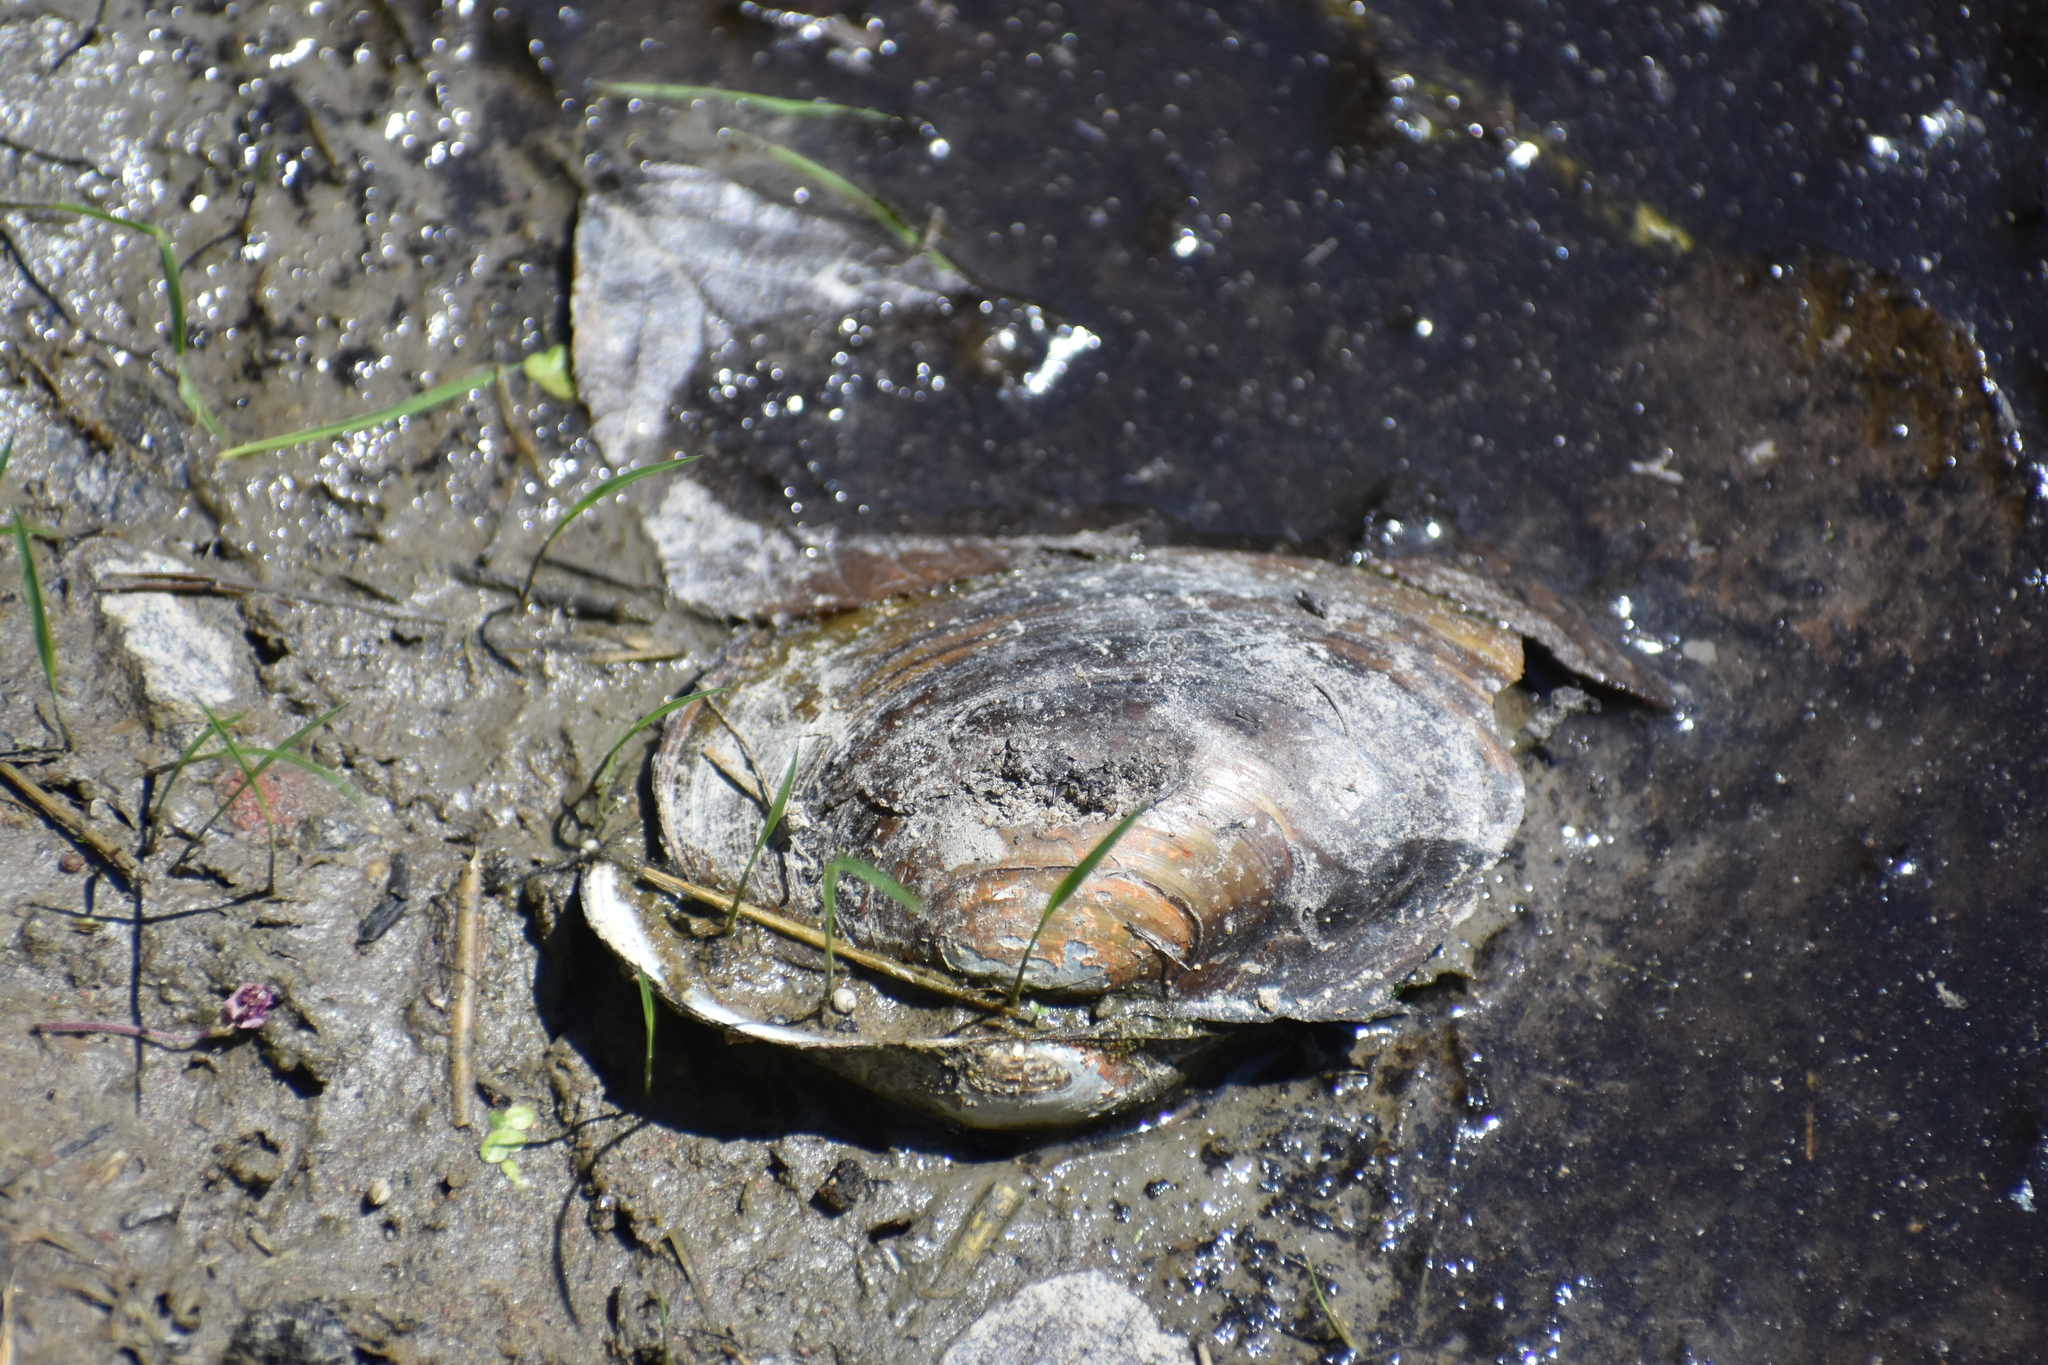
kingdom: Animalia
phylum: Mollusca
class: Bivalvia
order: Unionida
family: Unionidae
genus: Pyganodon
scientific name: Pyganodon cataracta
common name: Eastern floater
